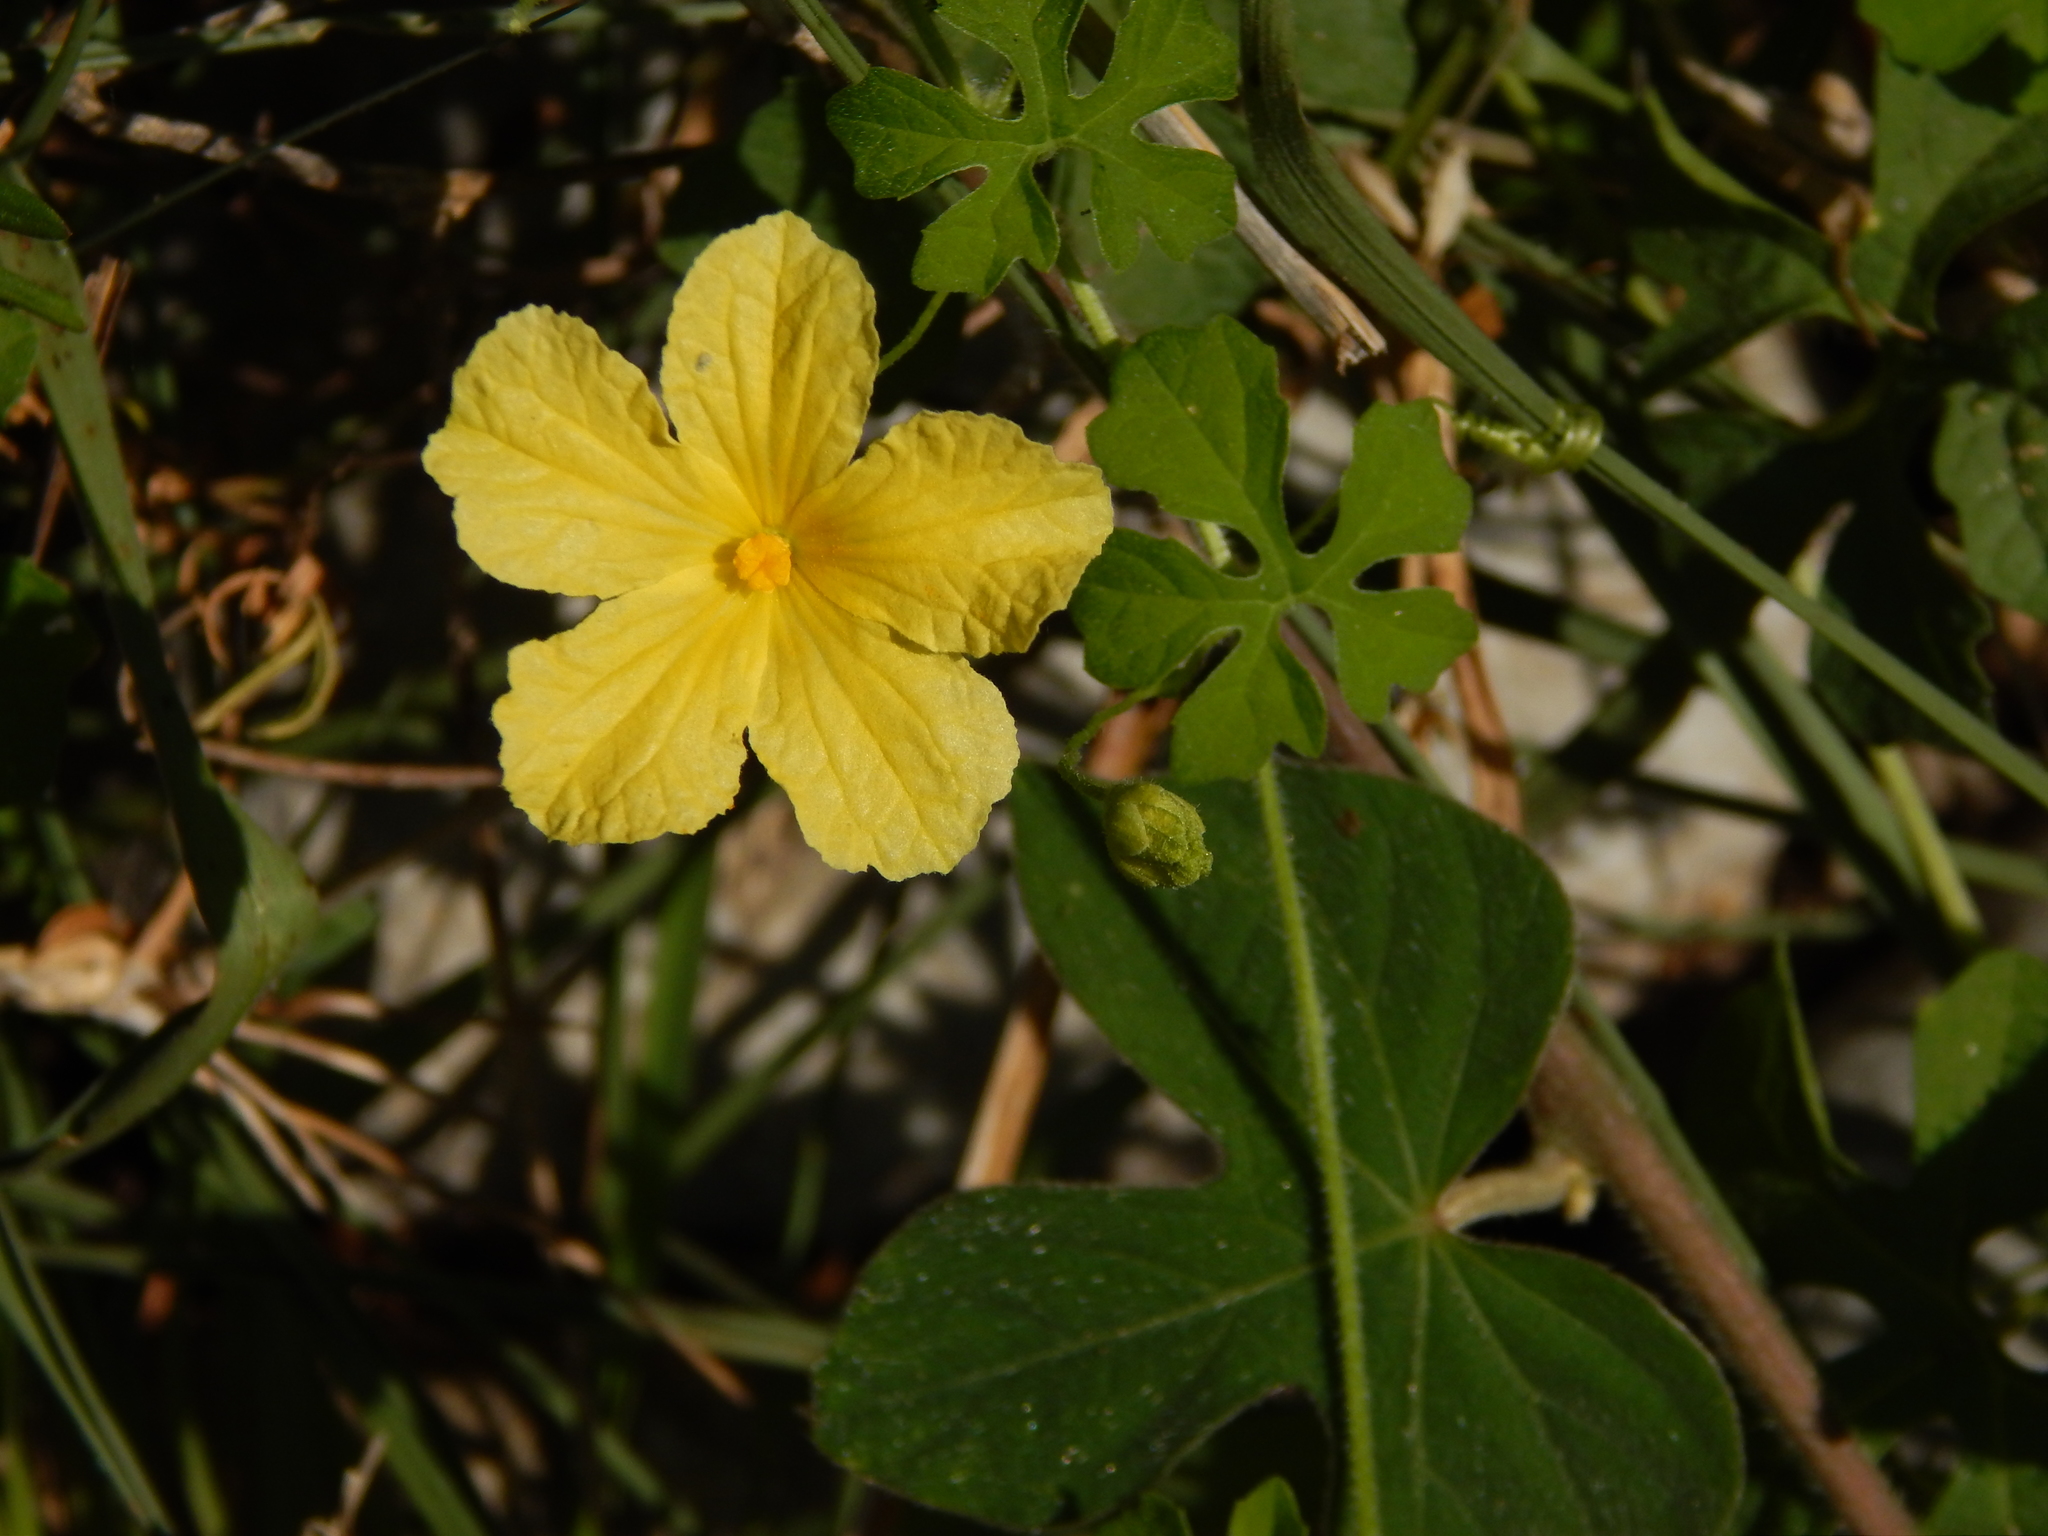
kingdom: Plantae
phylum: Tracheophyta
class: Magnoliopsida
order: Cucurbitales
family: Cucurbitaceae
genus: Momordica
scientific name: Momordica charantia
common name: Balsampear
